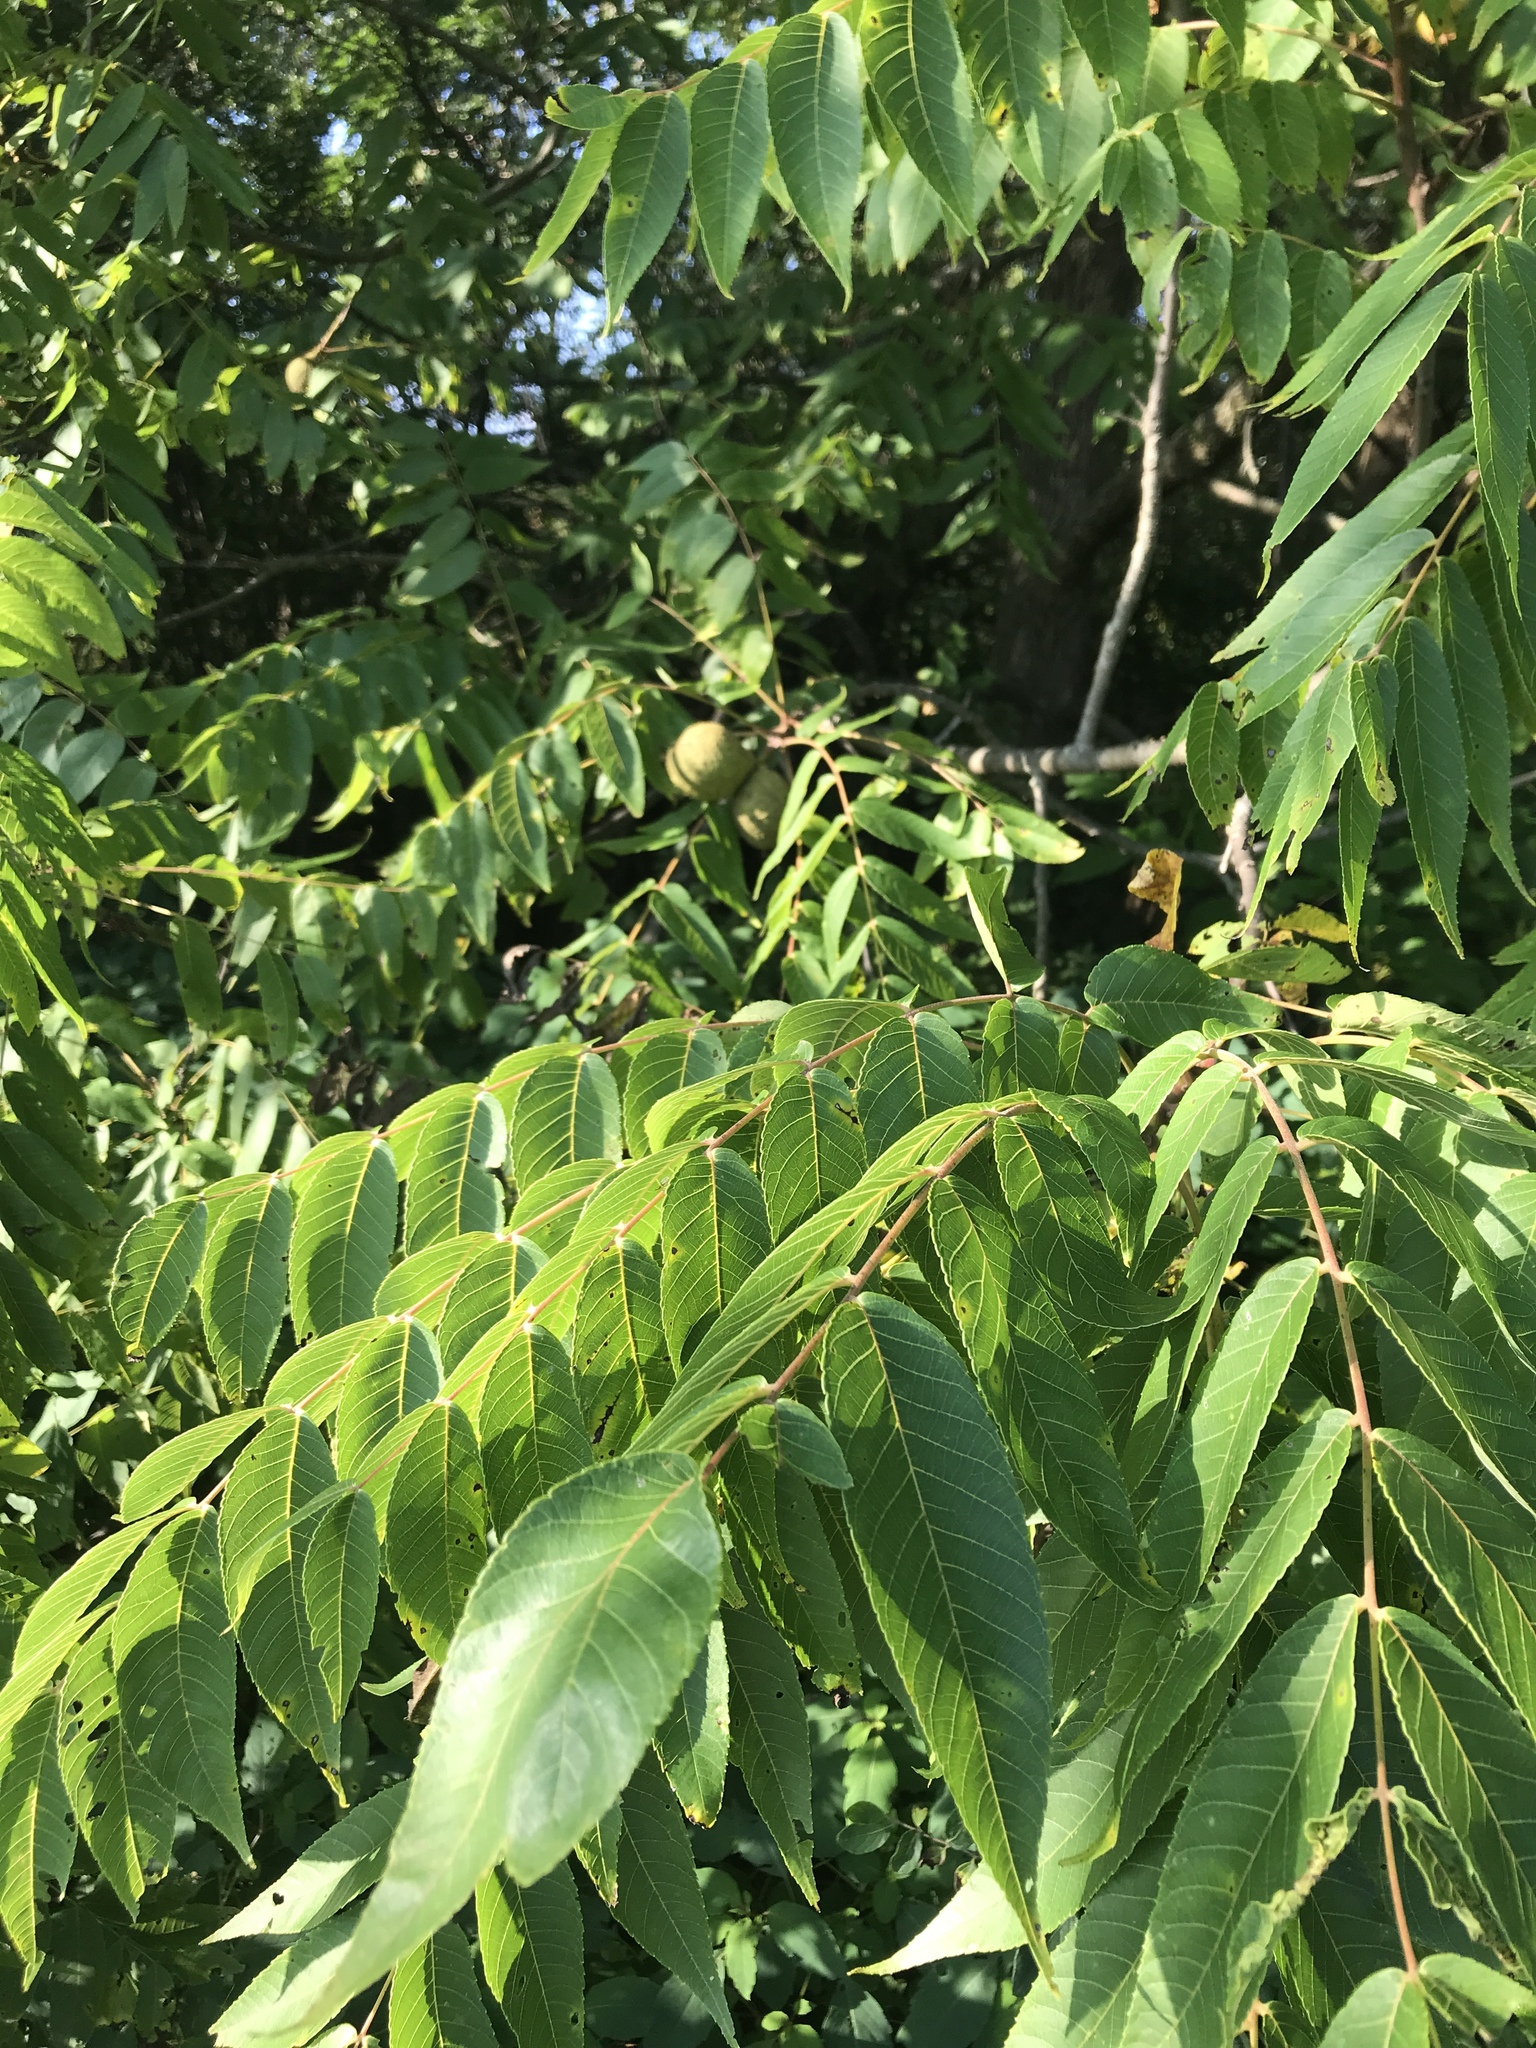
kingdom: Plantae
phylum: Tracheophyta
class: Magnoliopsida
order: Fagales
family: Juglandaceae
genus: Juglans
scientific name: Juglans nigra
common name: Black walnut
